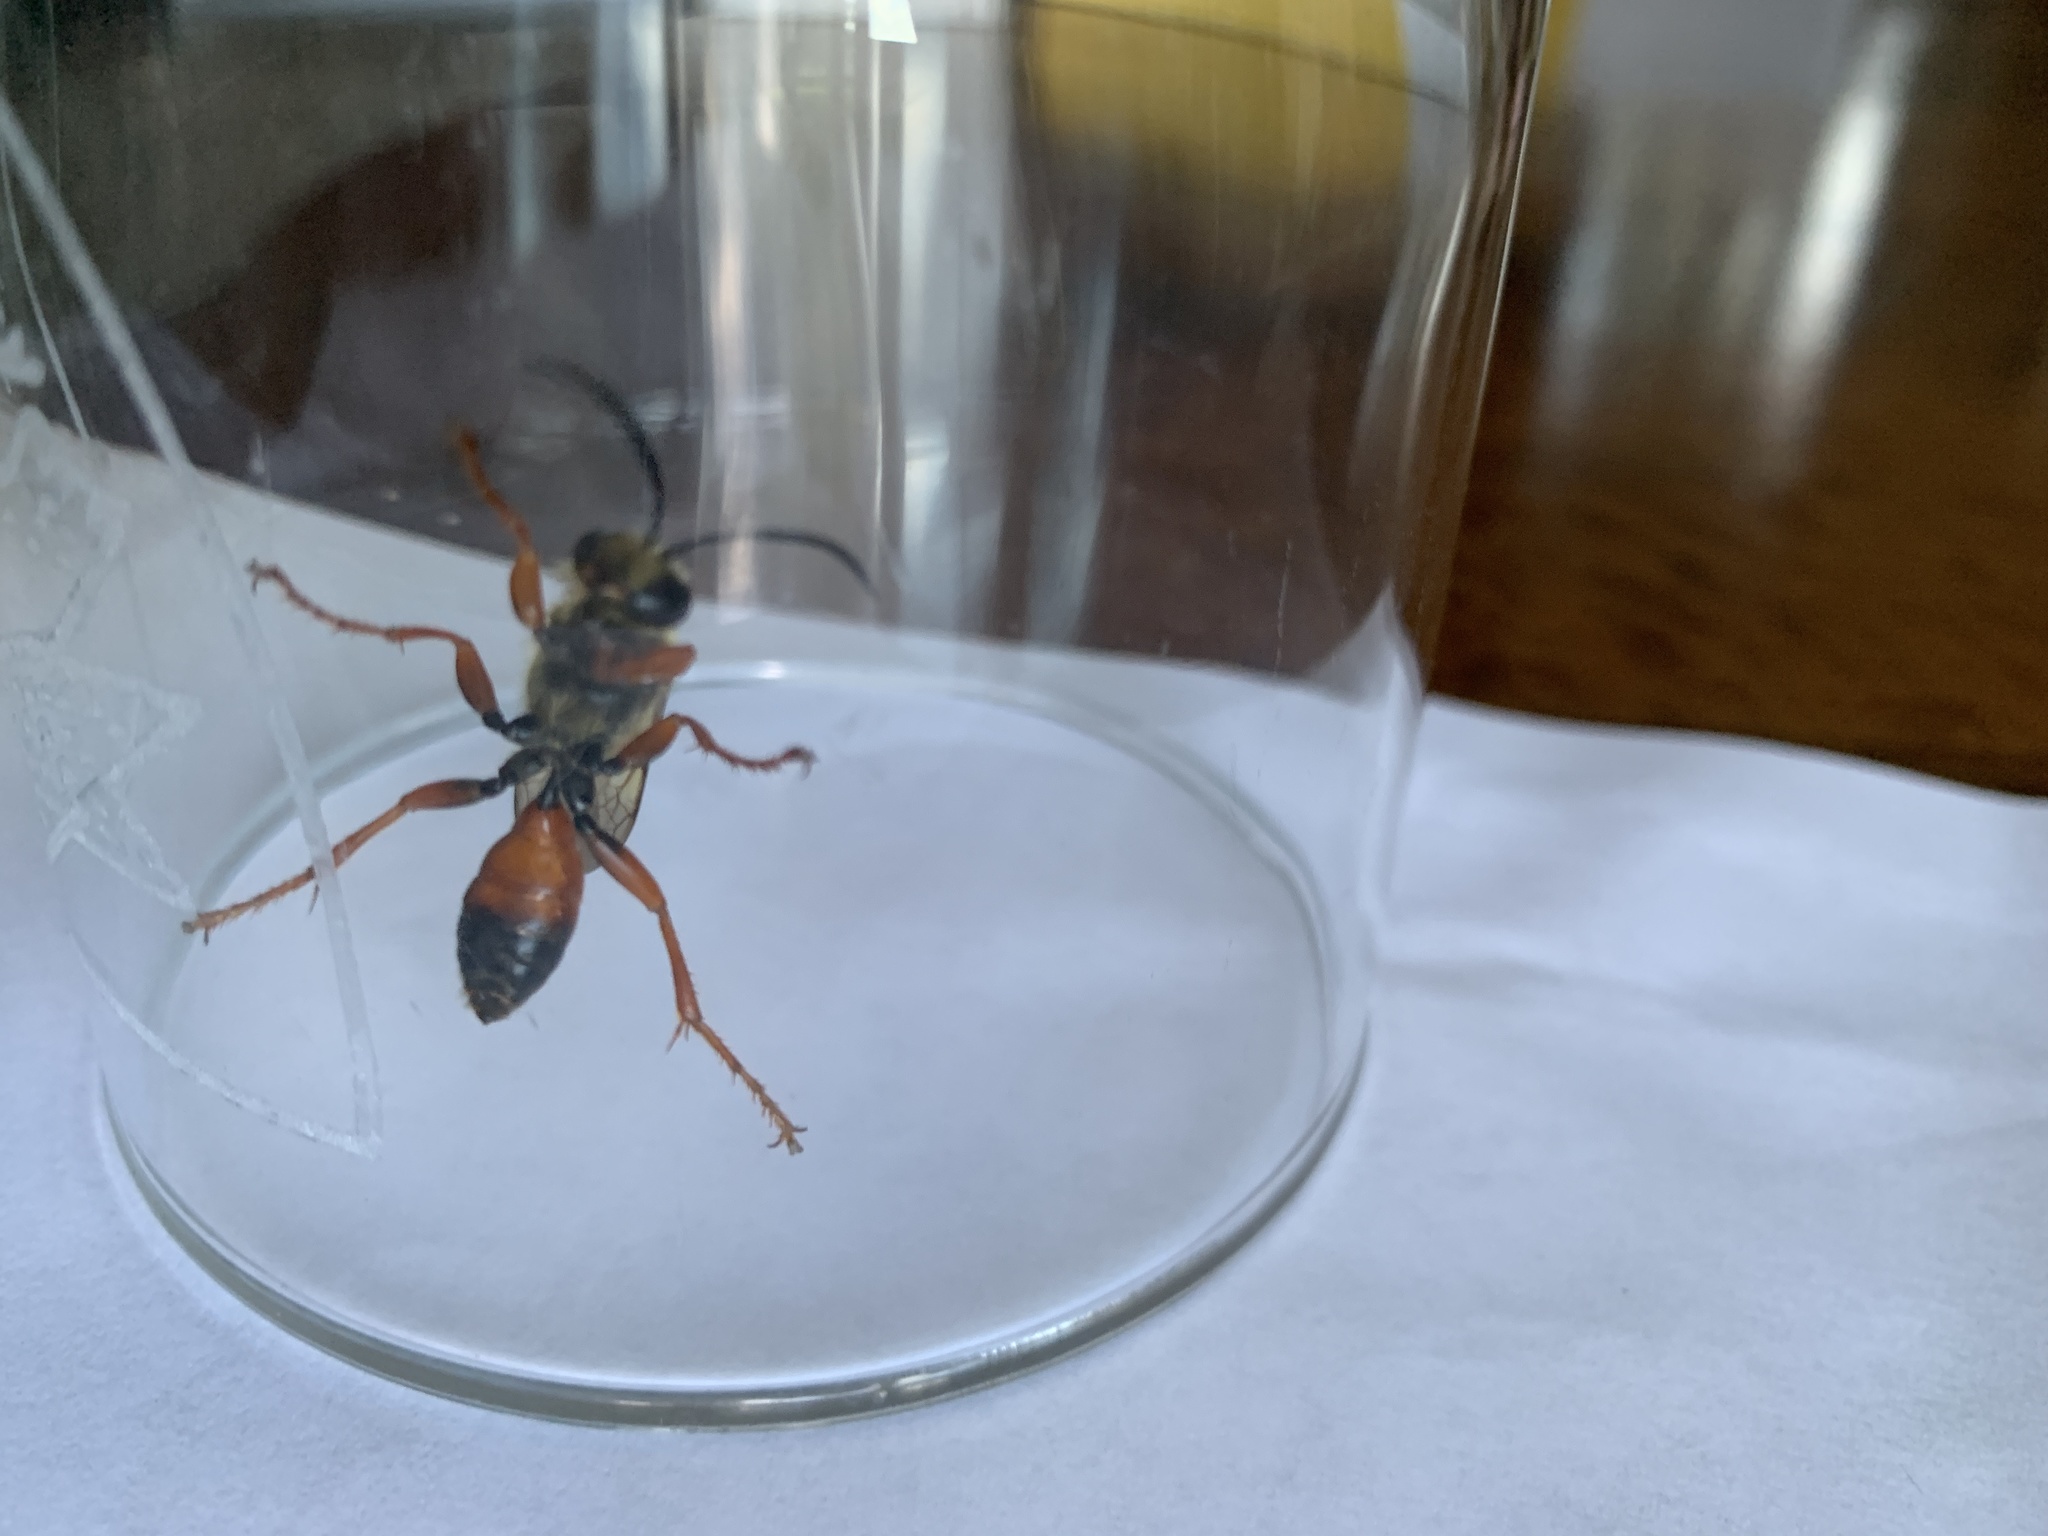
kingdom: Animalia
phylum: Arthropoda
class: Insecta
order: Hymenoptera
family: Sphecidae
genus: Sphex
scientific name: Sphex ichneumoneus
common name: Great golden digger wasp
